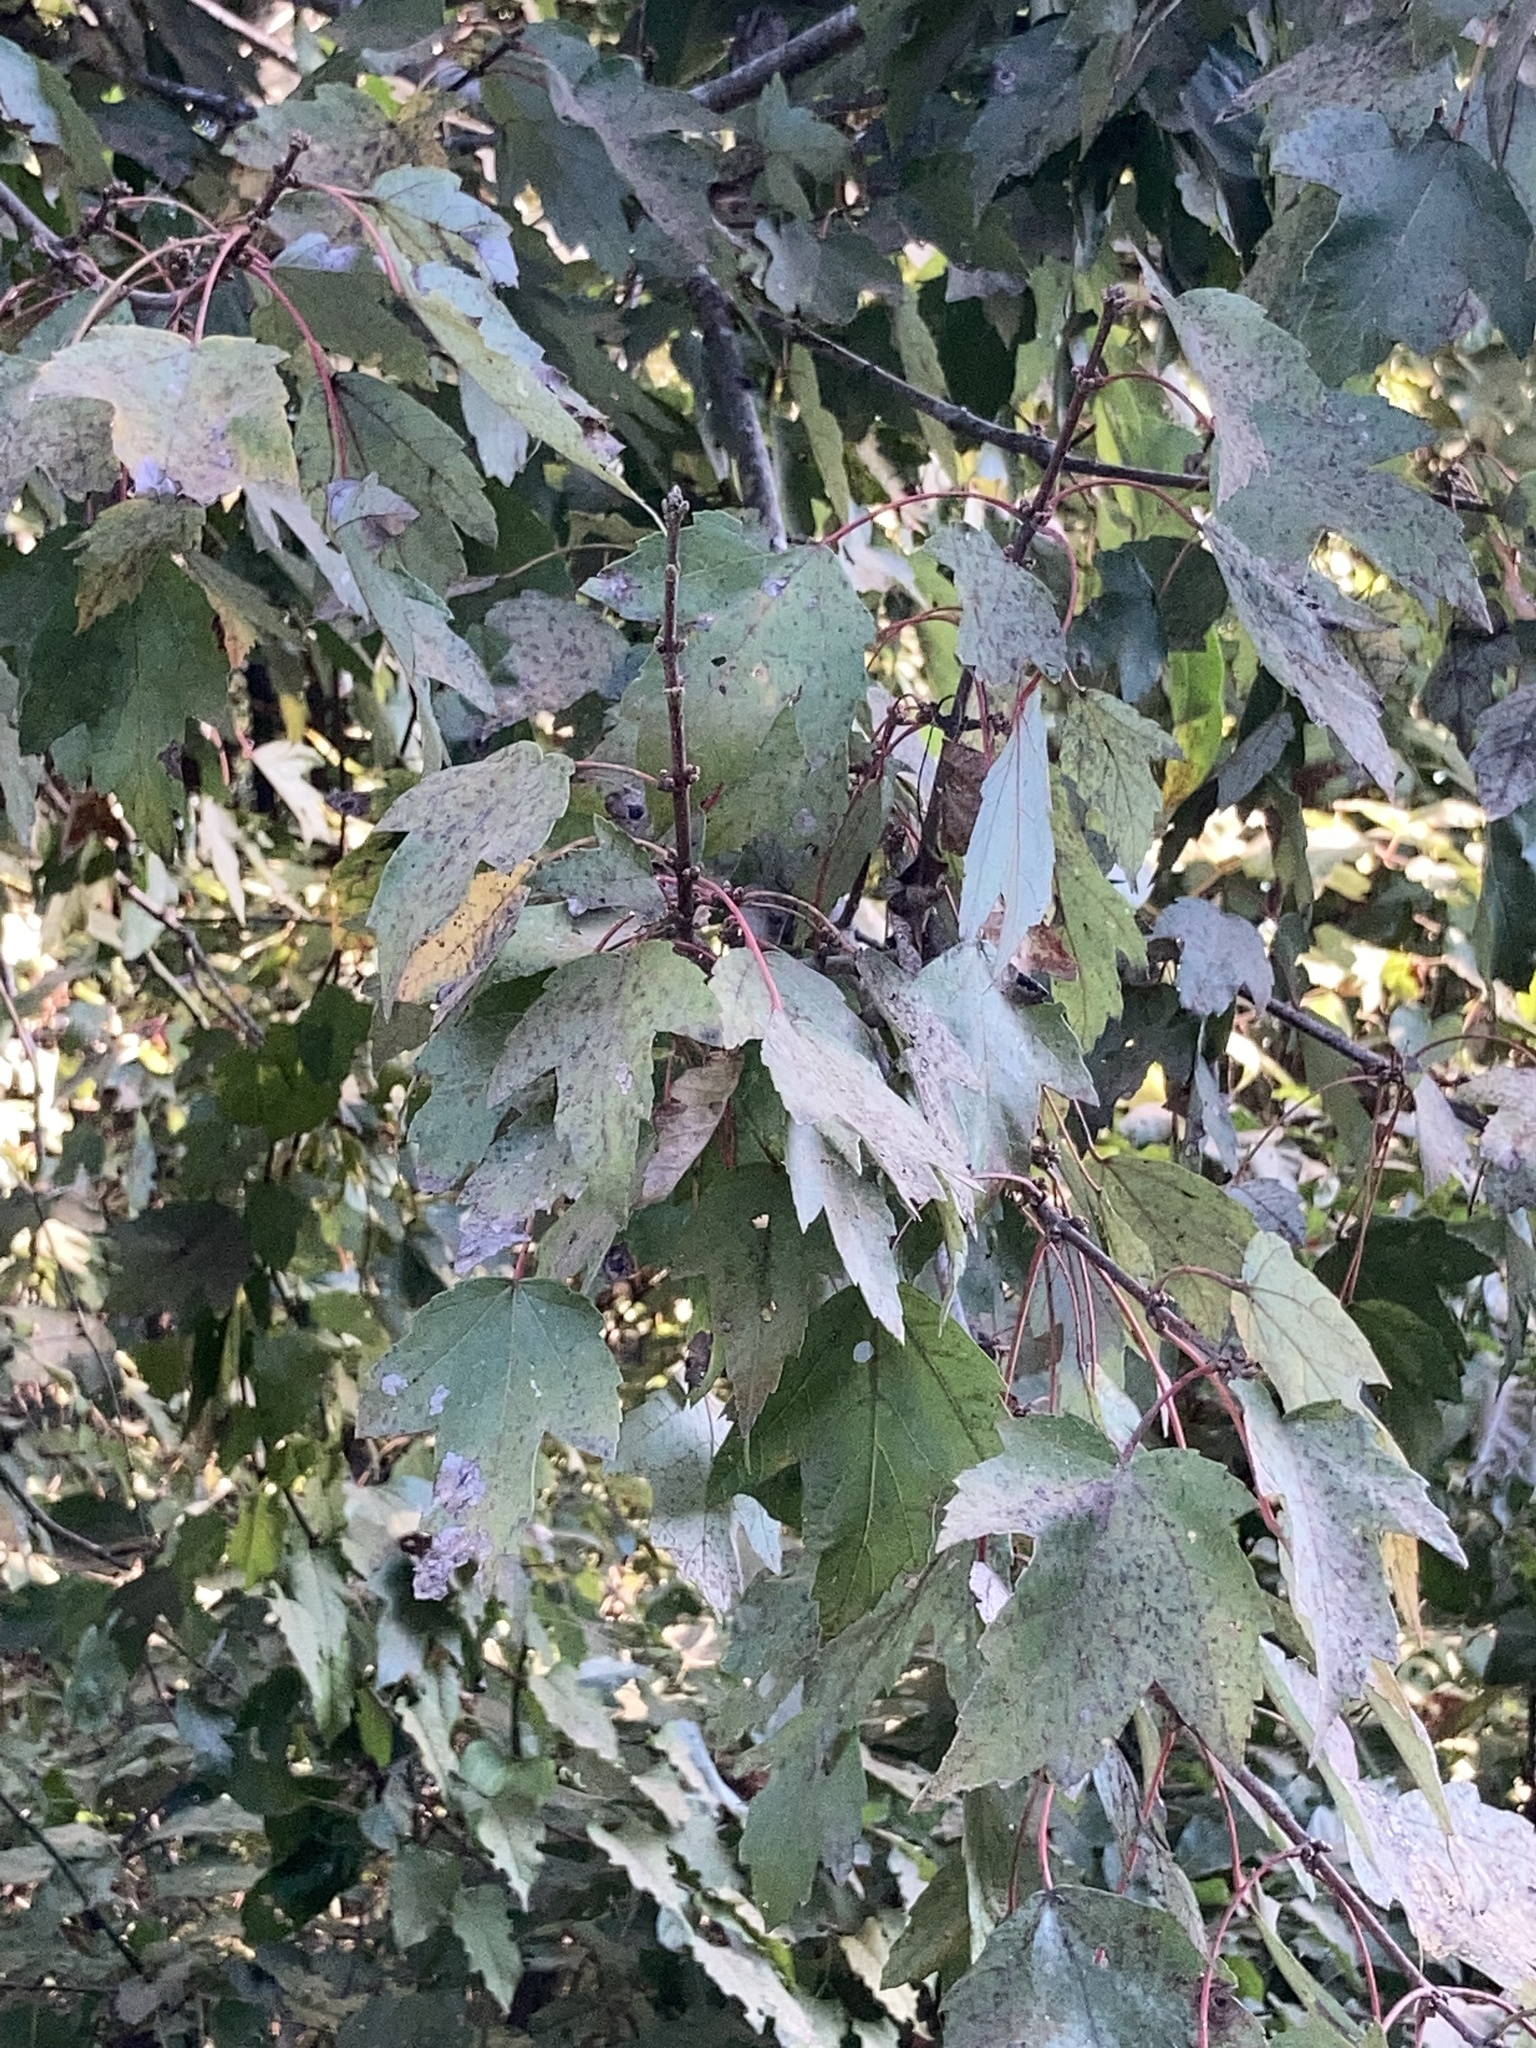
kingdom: Plantae
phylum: Tracheophyta
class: Magnoliopsida
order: Sapindales
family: Sapindaceae
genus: Acer
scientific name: Acer rubrum
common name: Red maple
